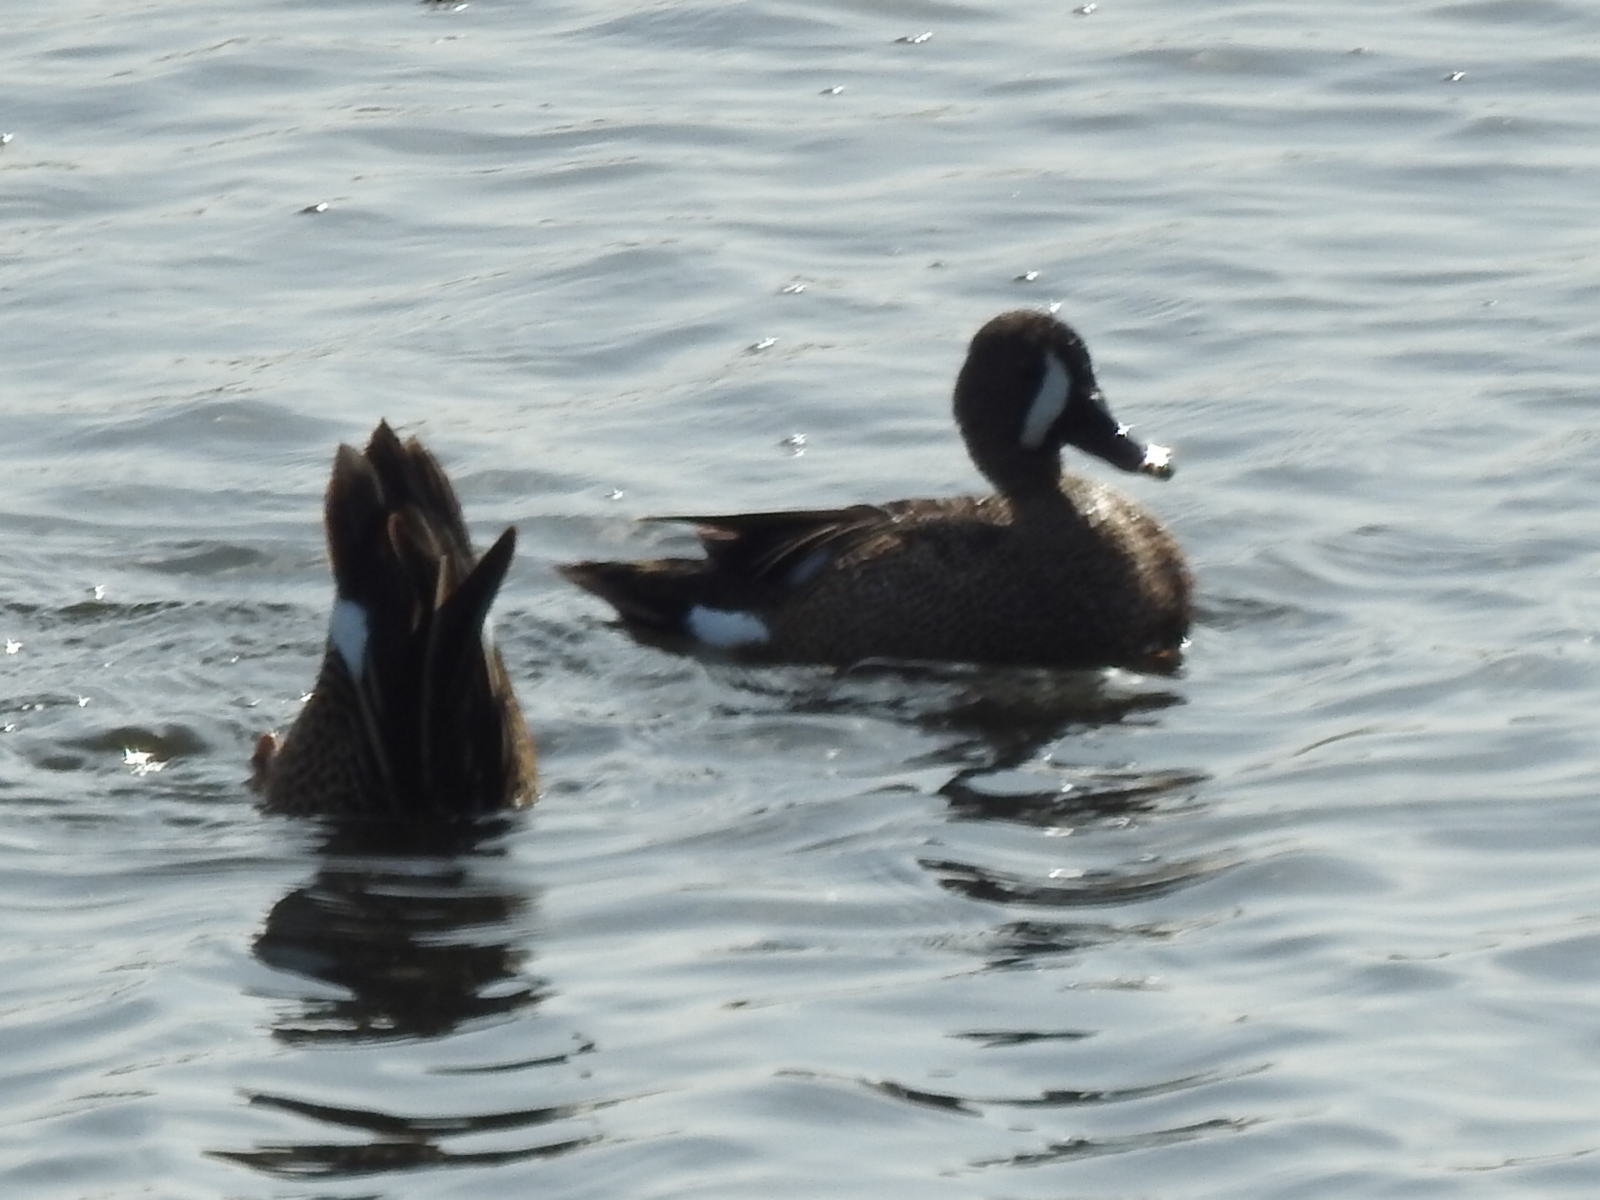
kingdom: Animalia
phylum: Chordata
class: Aves
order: Anseriformes
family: Anatidae
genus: Spatula
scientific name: Spatula discors
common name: Blue-winged teal
